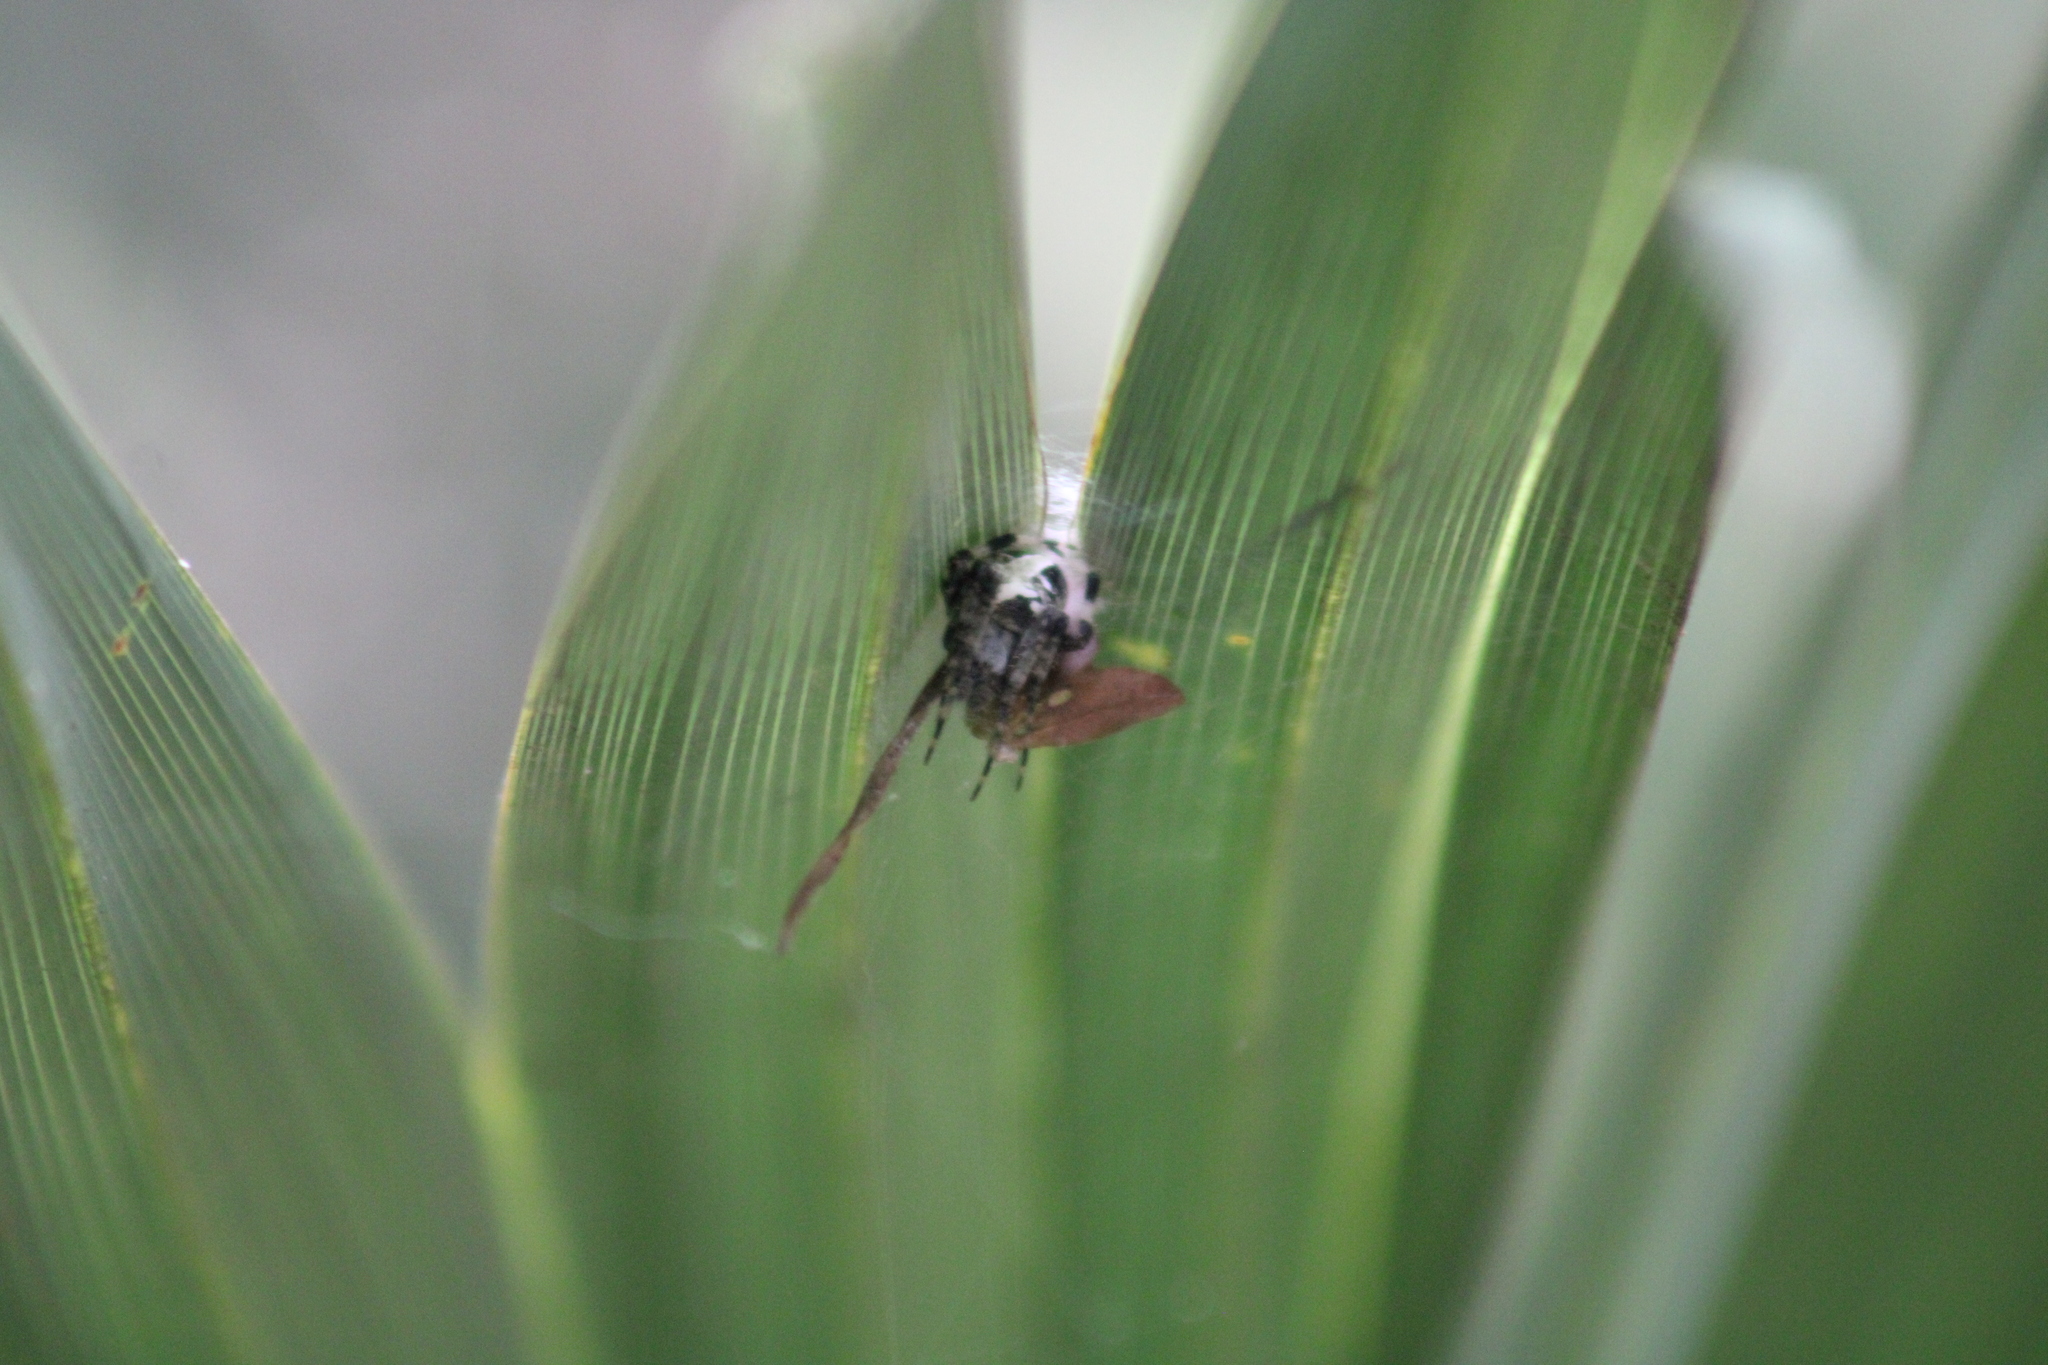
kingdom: Animalia
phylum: Arthropoda
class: Arachnida
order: Araneae
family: Araneidae
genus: Neoscona
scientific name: Neoscona domiciliorum
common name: Red-femured spotted orbweaver
